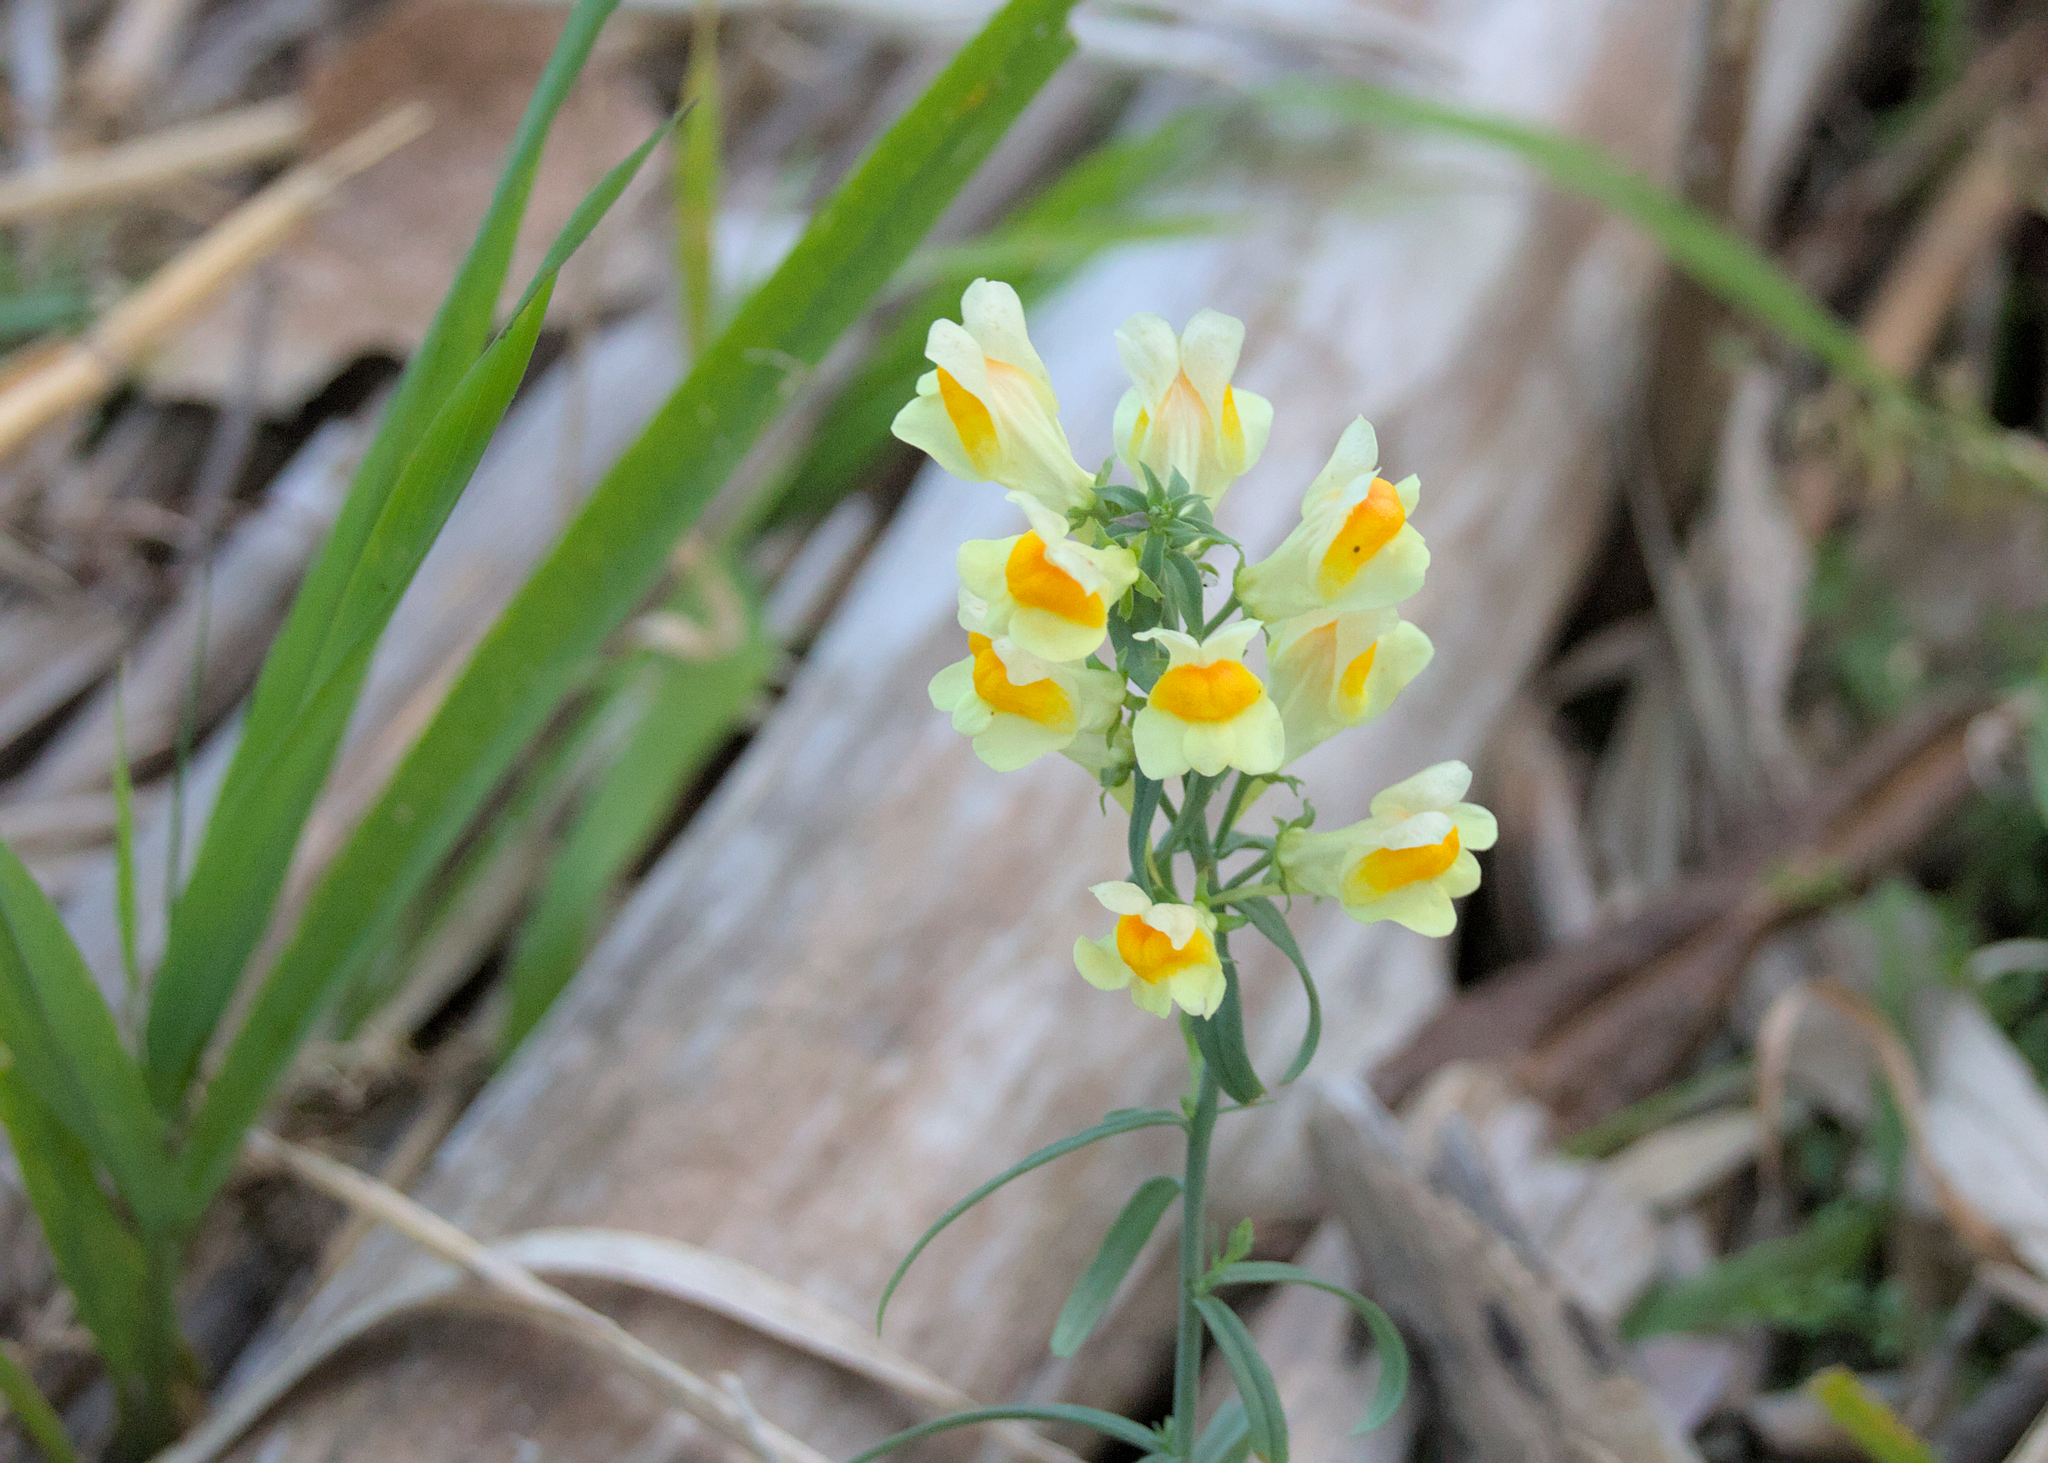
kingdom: Plantae
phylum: Tracheophyta
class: Magnoliopsida
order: Lamiales
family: Plantaginaceae
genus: Linaria
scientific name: Linaria vulgaris
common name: Butter and eggs
